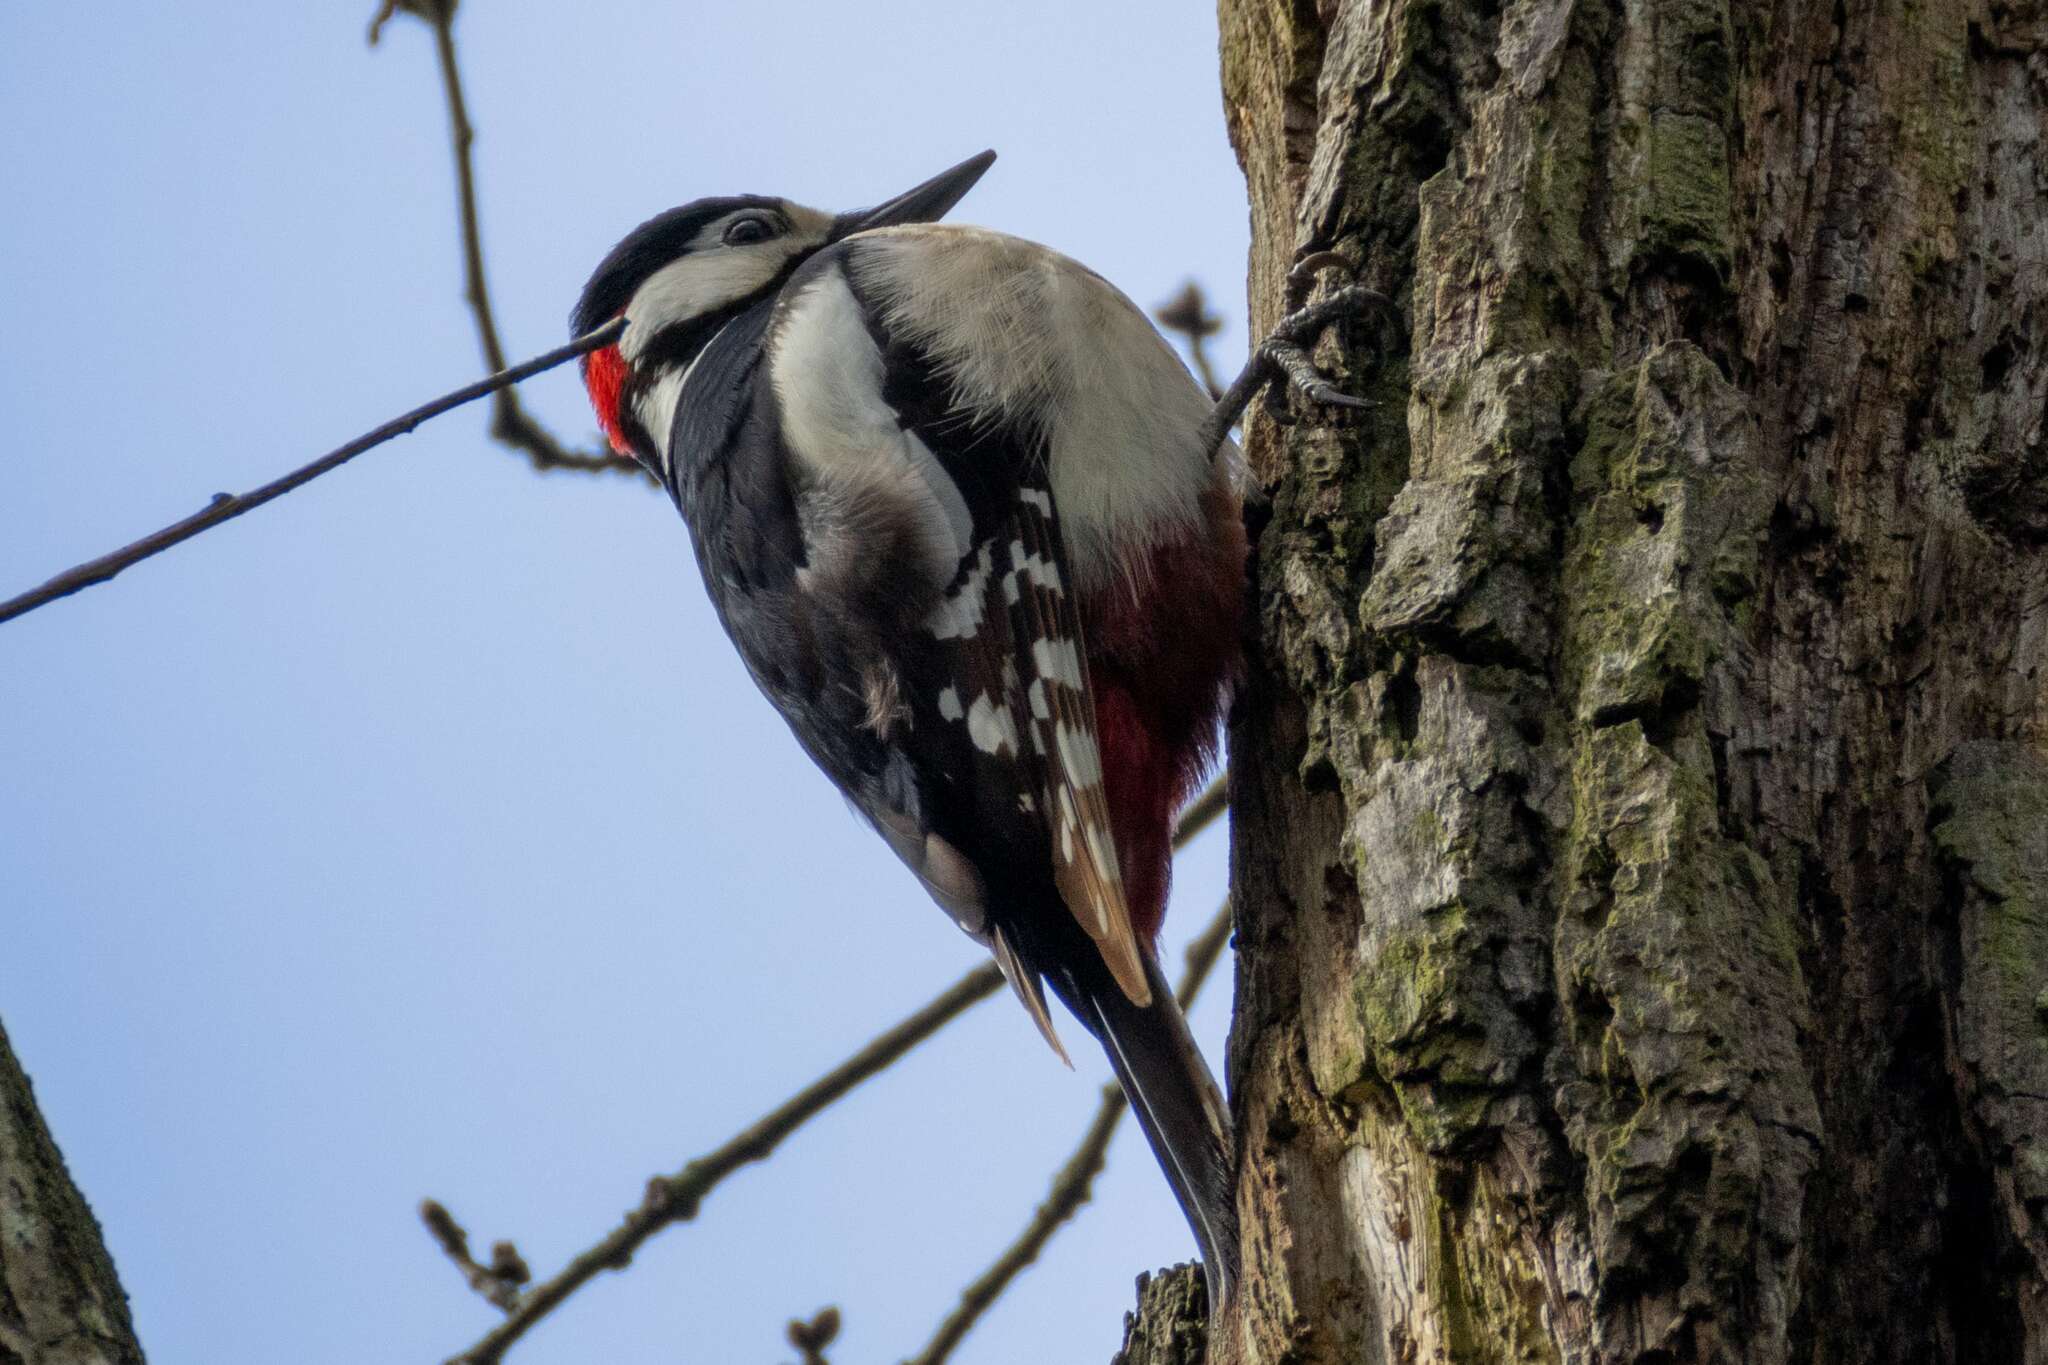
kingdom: Animalia
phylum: Chordata
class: Aves
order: Piciformes
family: Picidae
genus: Dendrocopos
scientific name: Dendrocopos major
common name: Great spotted woodpecker
